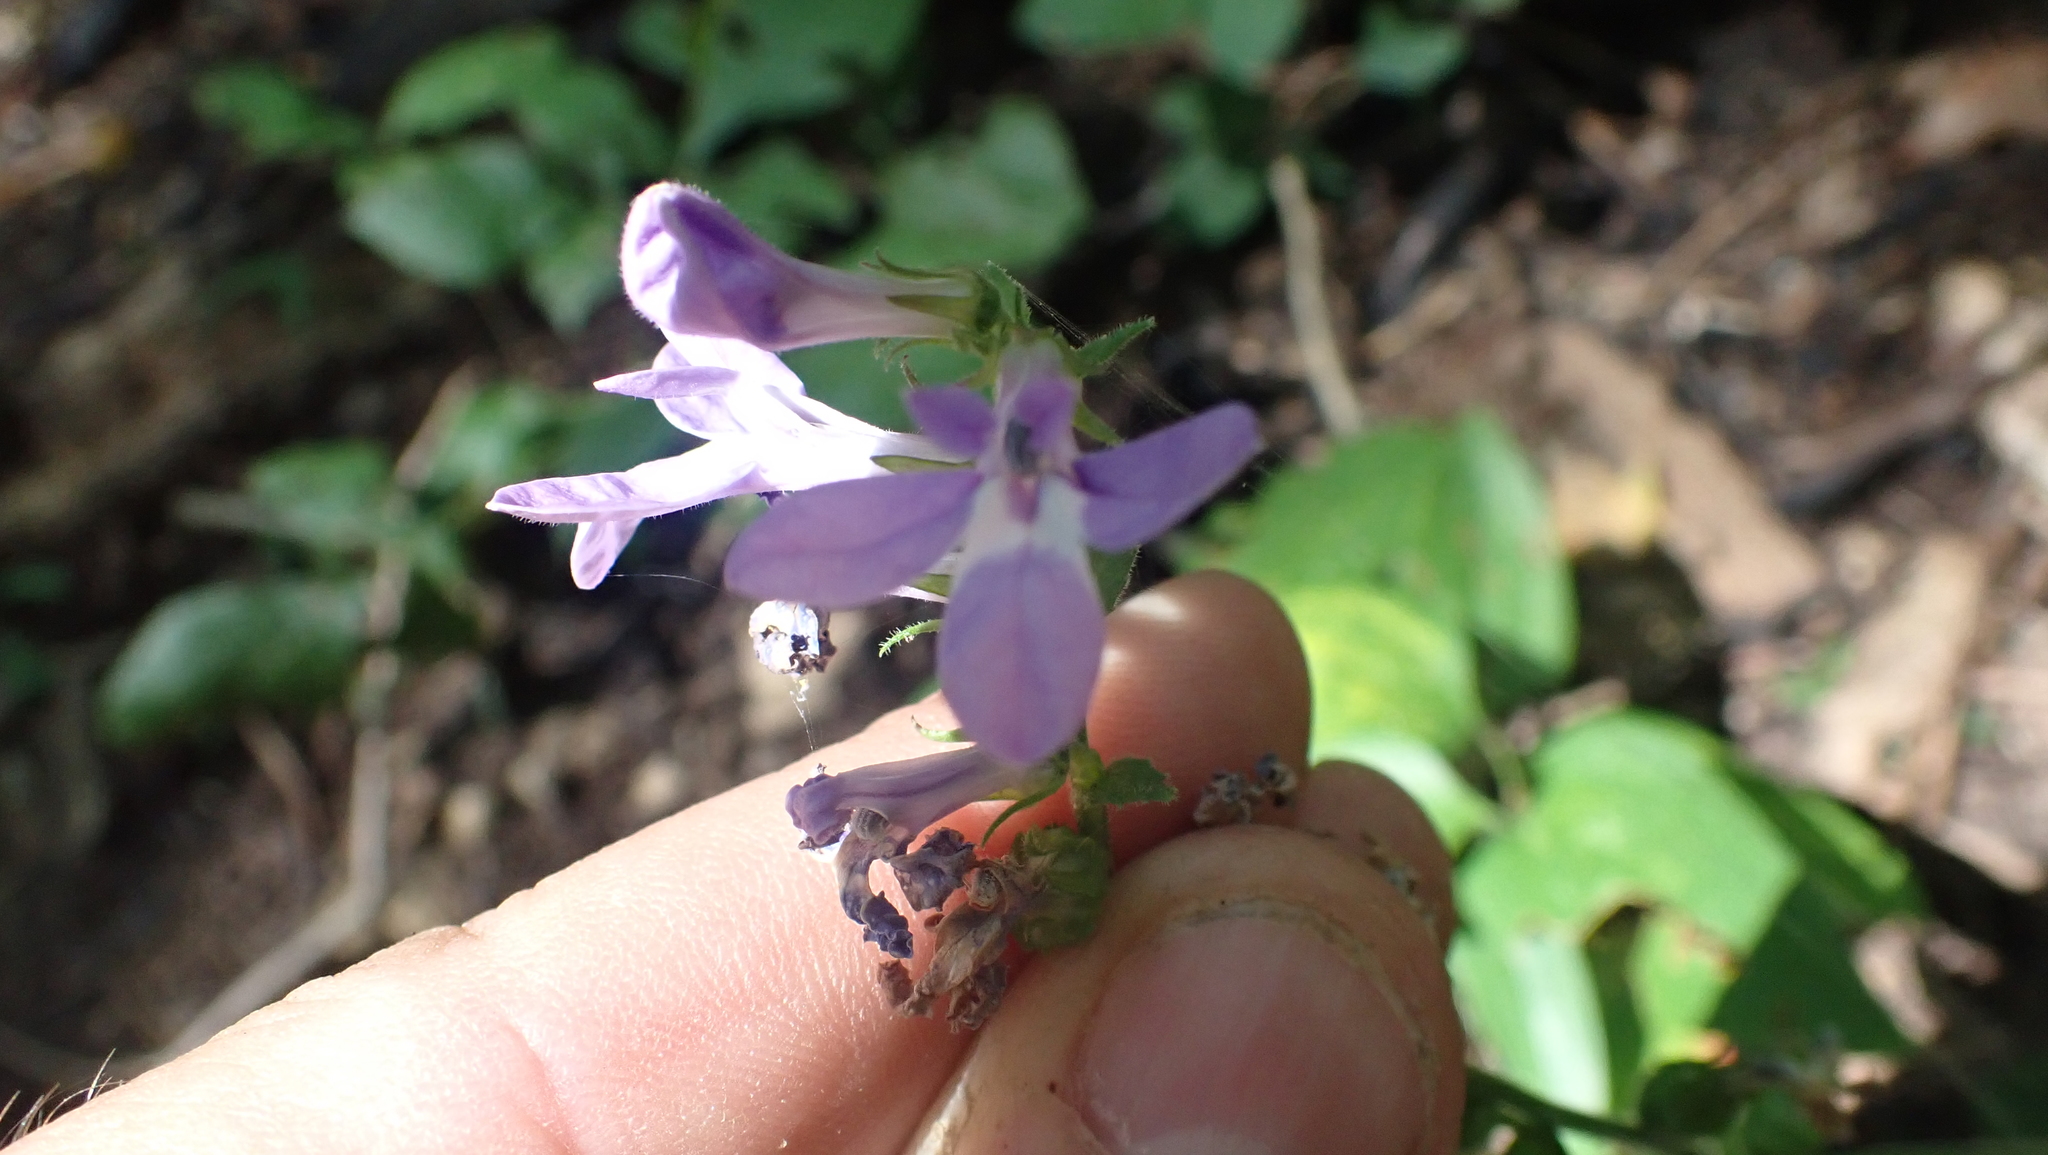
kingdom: Plantae
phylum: Tracheophyta
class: Magnoliopsida
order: Asterales
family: Campanulaceae
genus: Lobelia
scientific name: Lobelia puberula
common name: Purple dewdrop
